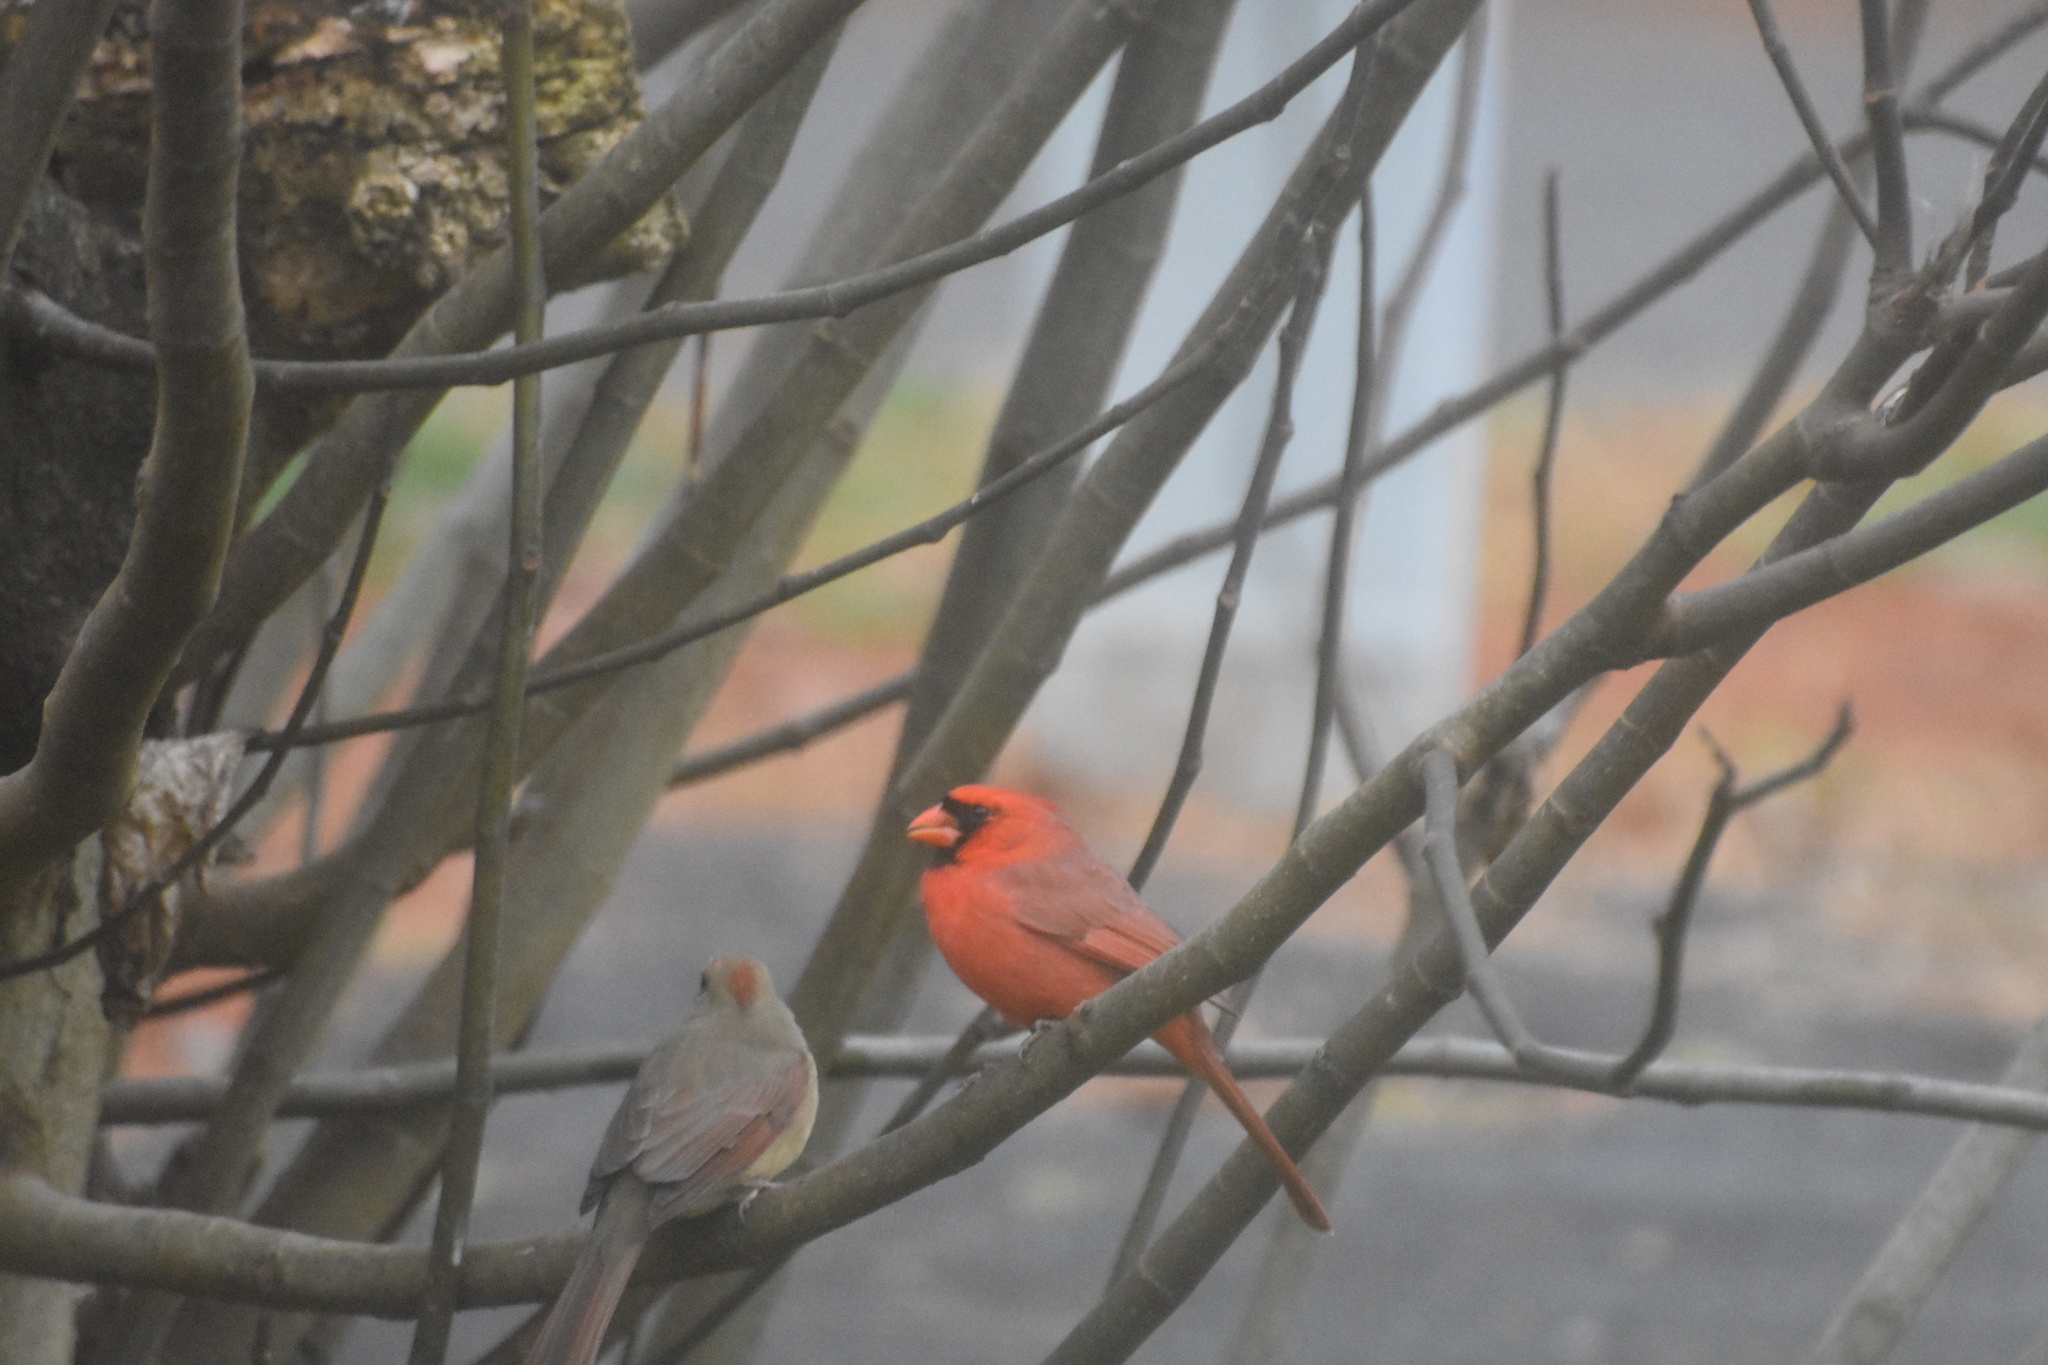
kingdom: Animalia
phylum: Chordata
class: Aves
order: Passeriformes
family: Cardinalidae
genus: Cardinalis
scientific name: Cardinalis cardinalis
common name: Northern cardinal
